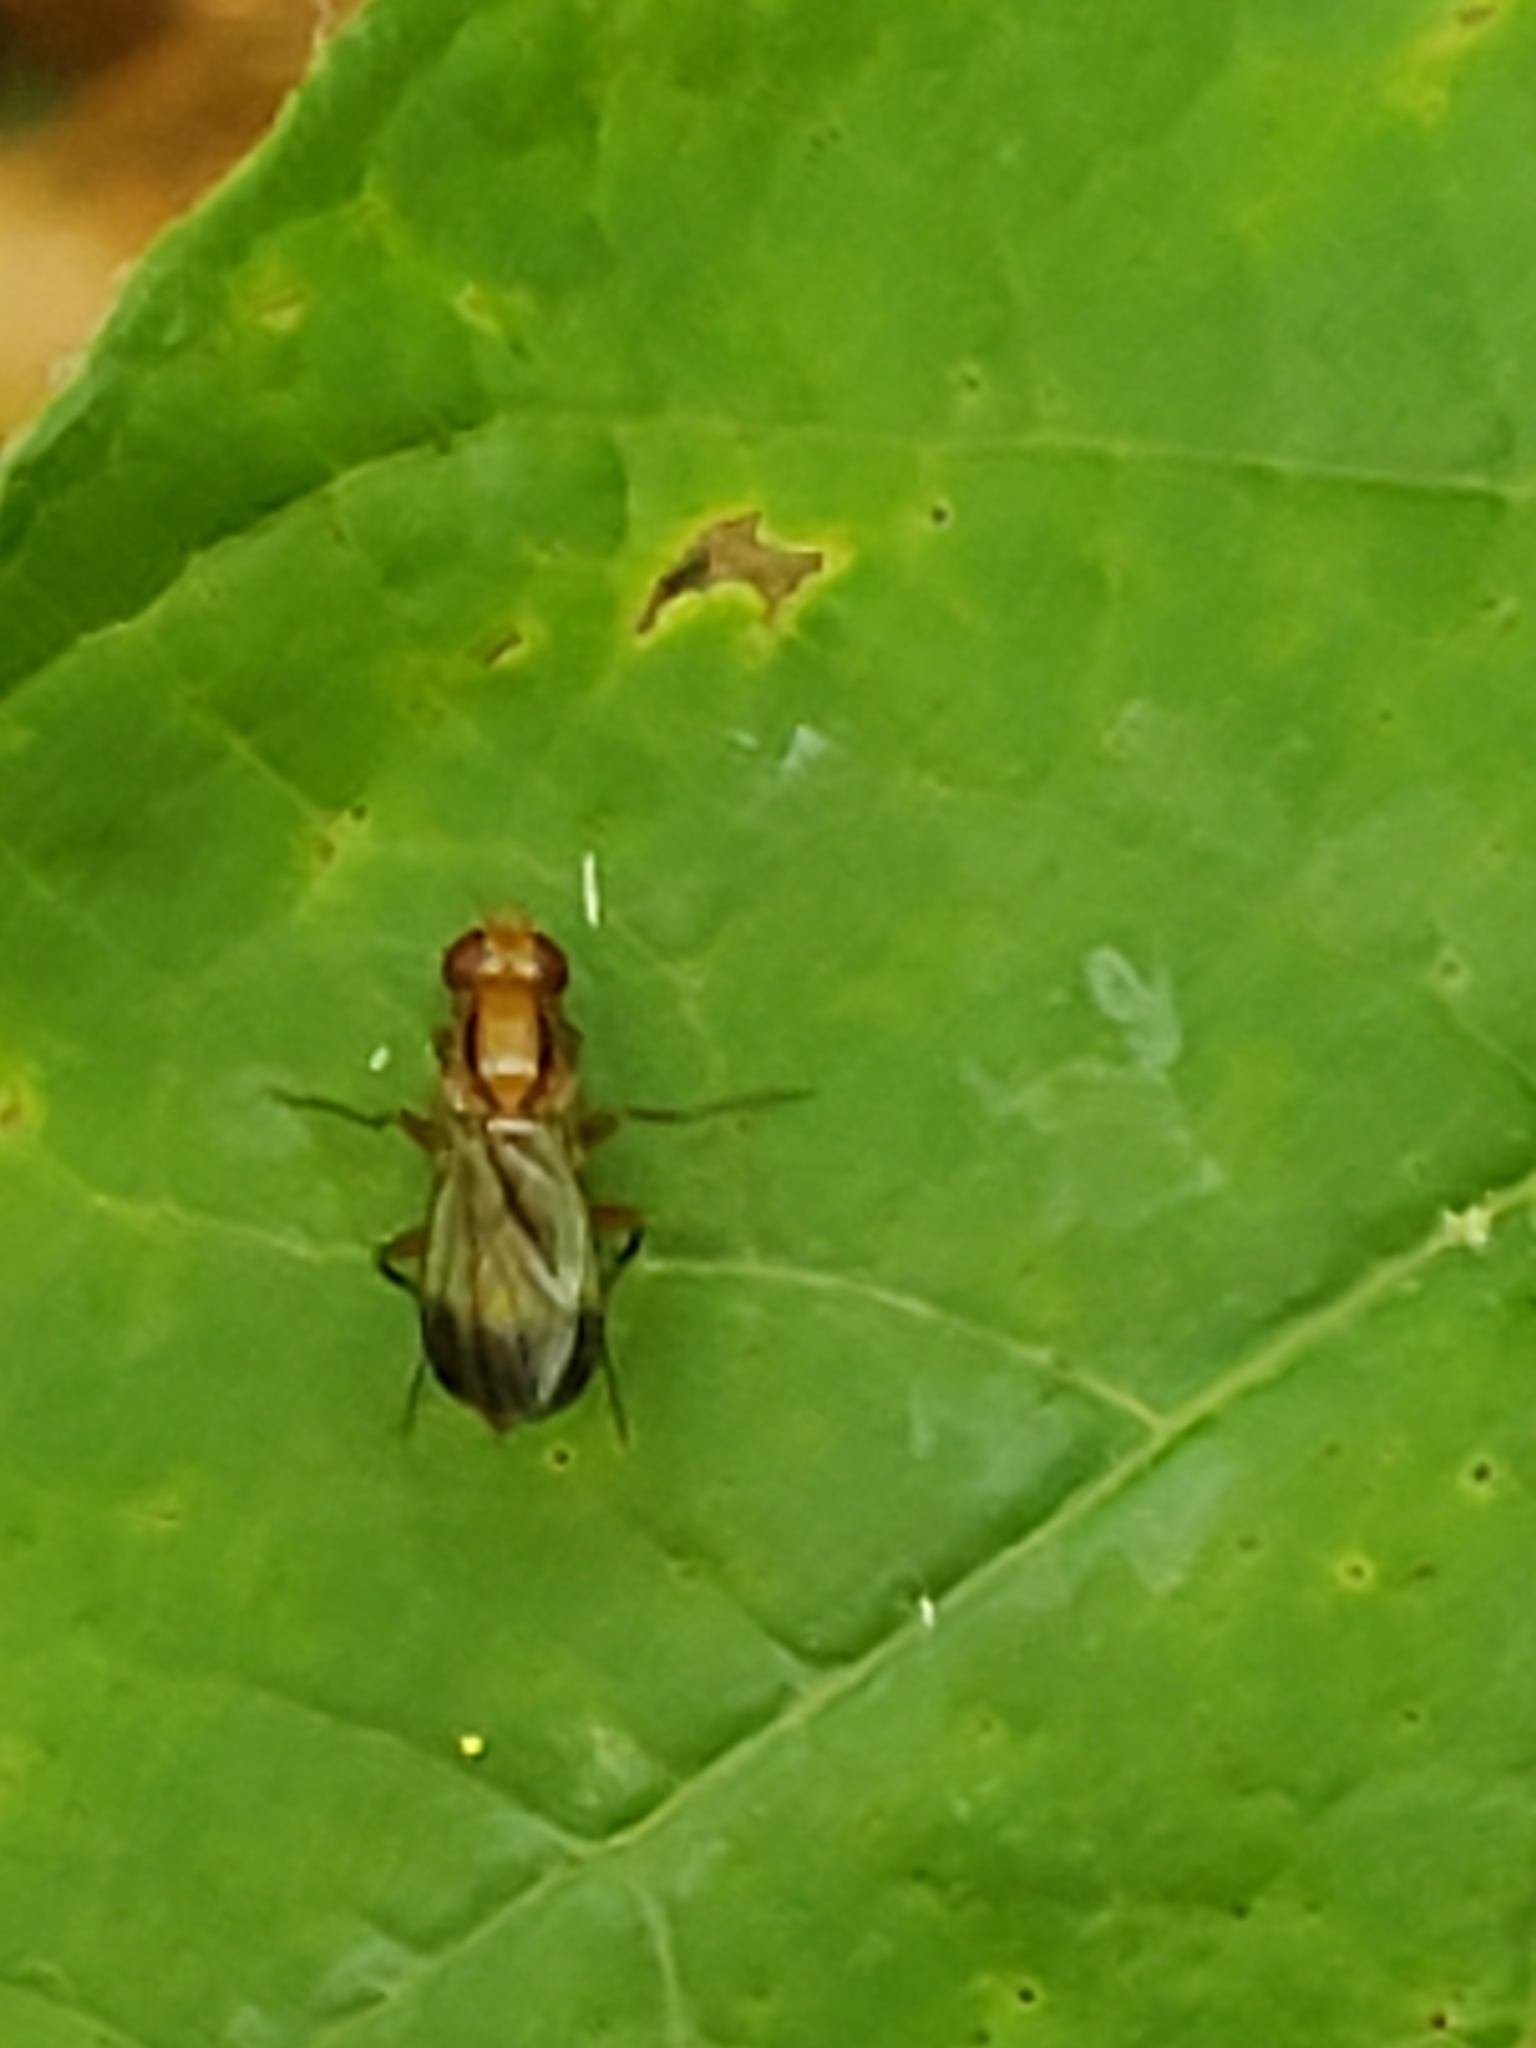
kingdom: Animalia
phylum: Arthropoda
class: Insecta
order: Diptera
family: Clusiidae
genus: Clusia
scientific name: Clusia lateralis
